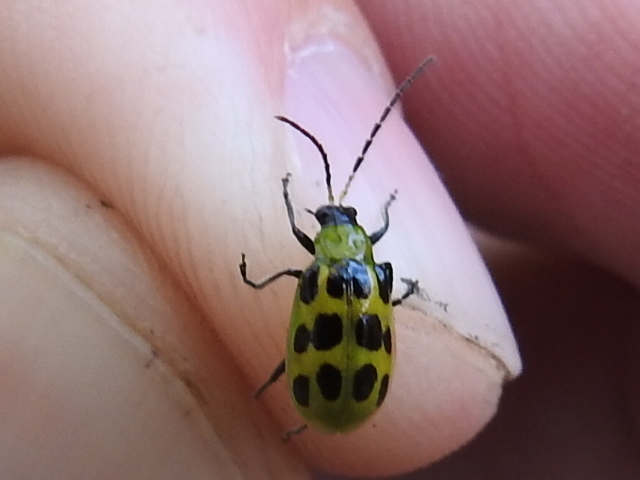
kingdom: Animalia
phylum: Arthropoda
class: Insecta
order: Coleoptera
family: Chrysomelidae
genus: Diabrotica
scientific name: Diabrotica undecimpunctata
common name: Spotted cucumber beetle
